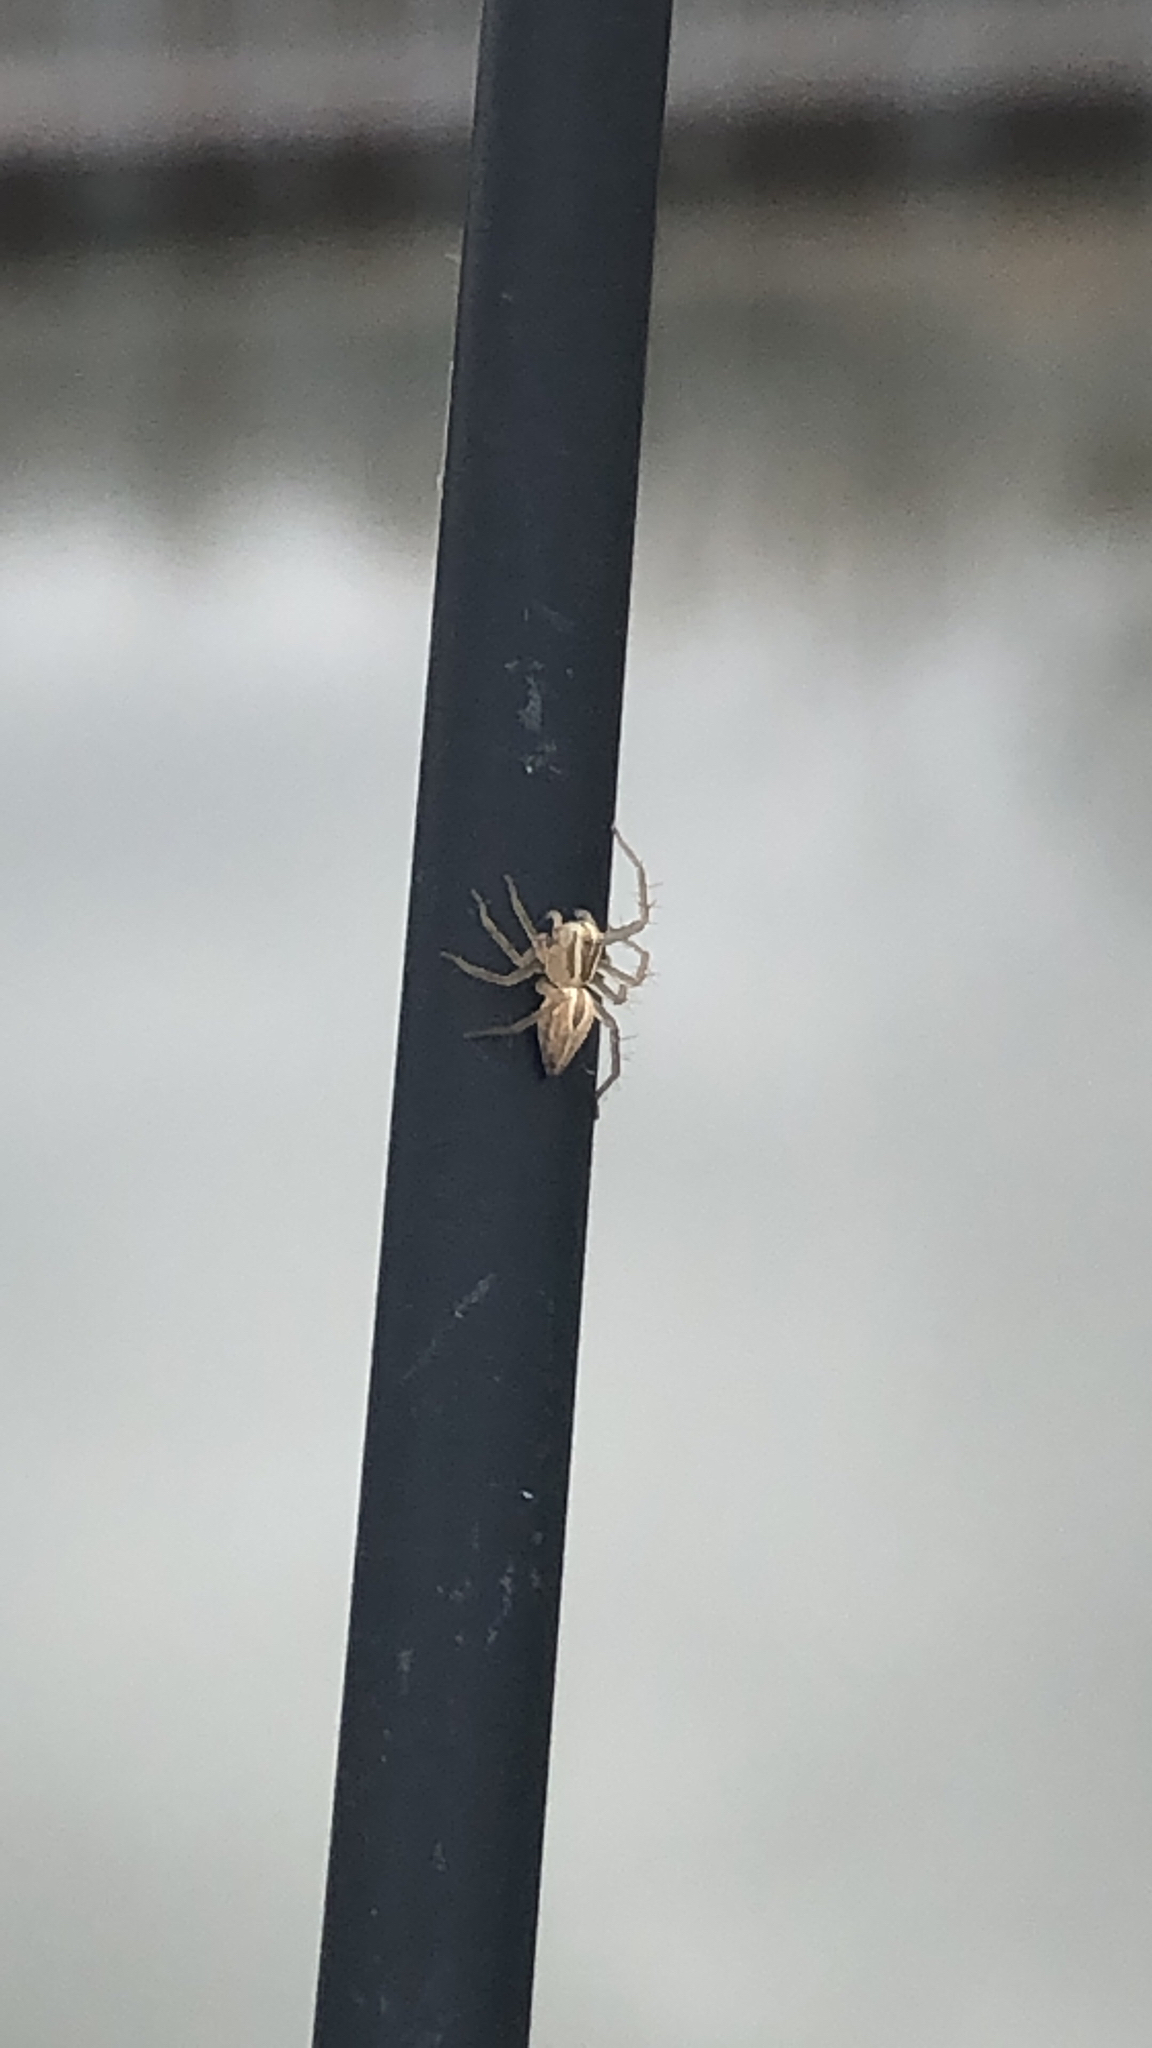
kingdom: Animalia
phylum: Arthropoda
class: Arachnida
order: Araneae
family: Oxyopidae
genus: Oxyopes
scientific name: Oxyopes salticus
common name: Lynx spiders
